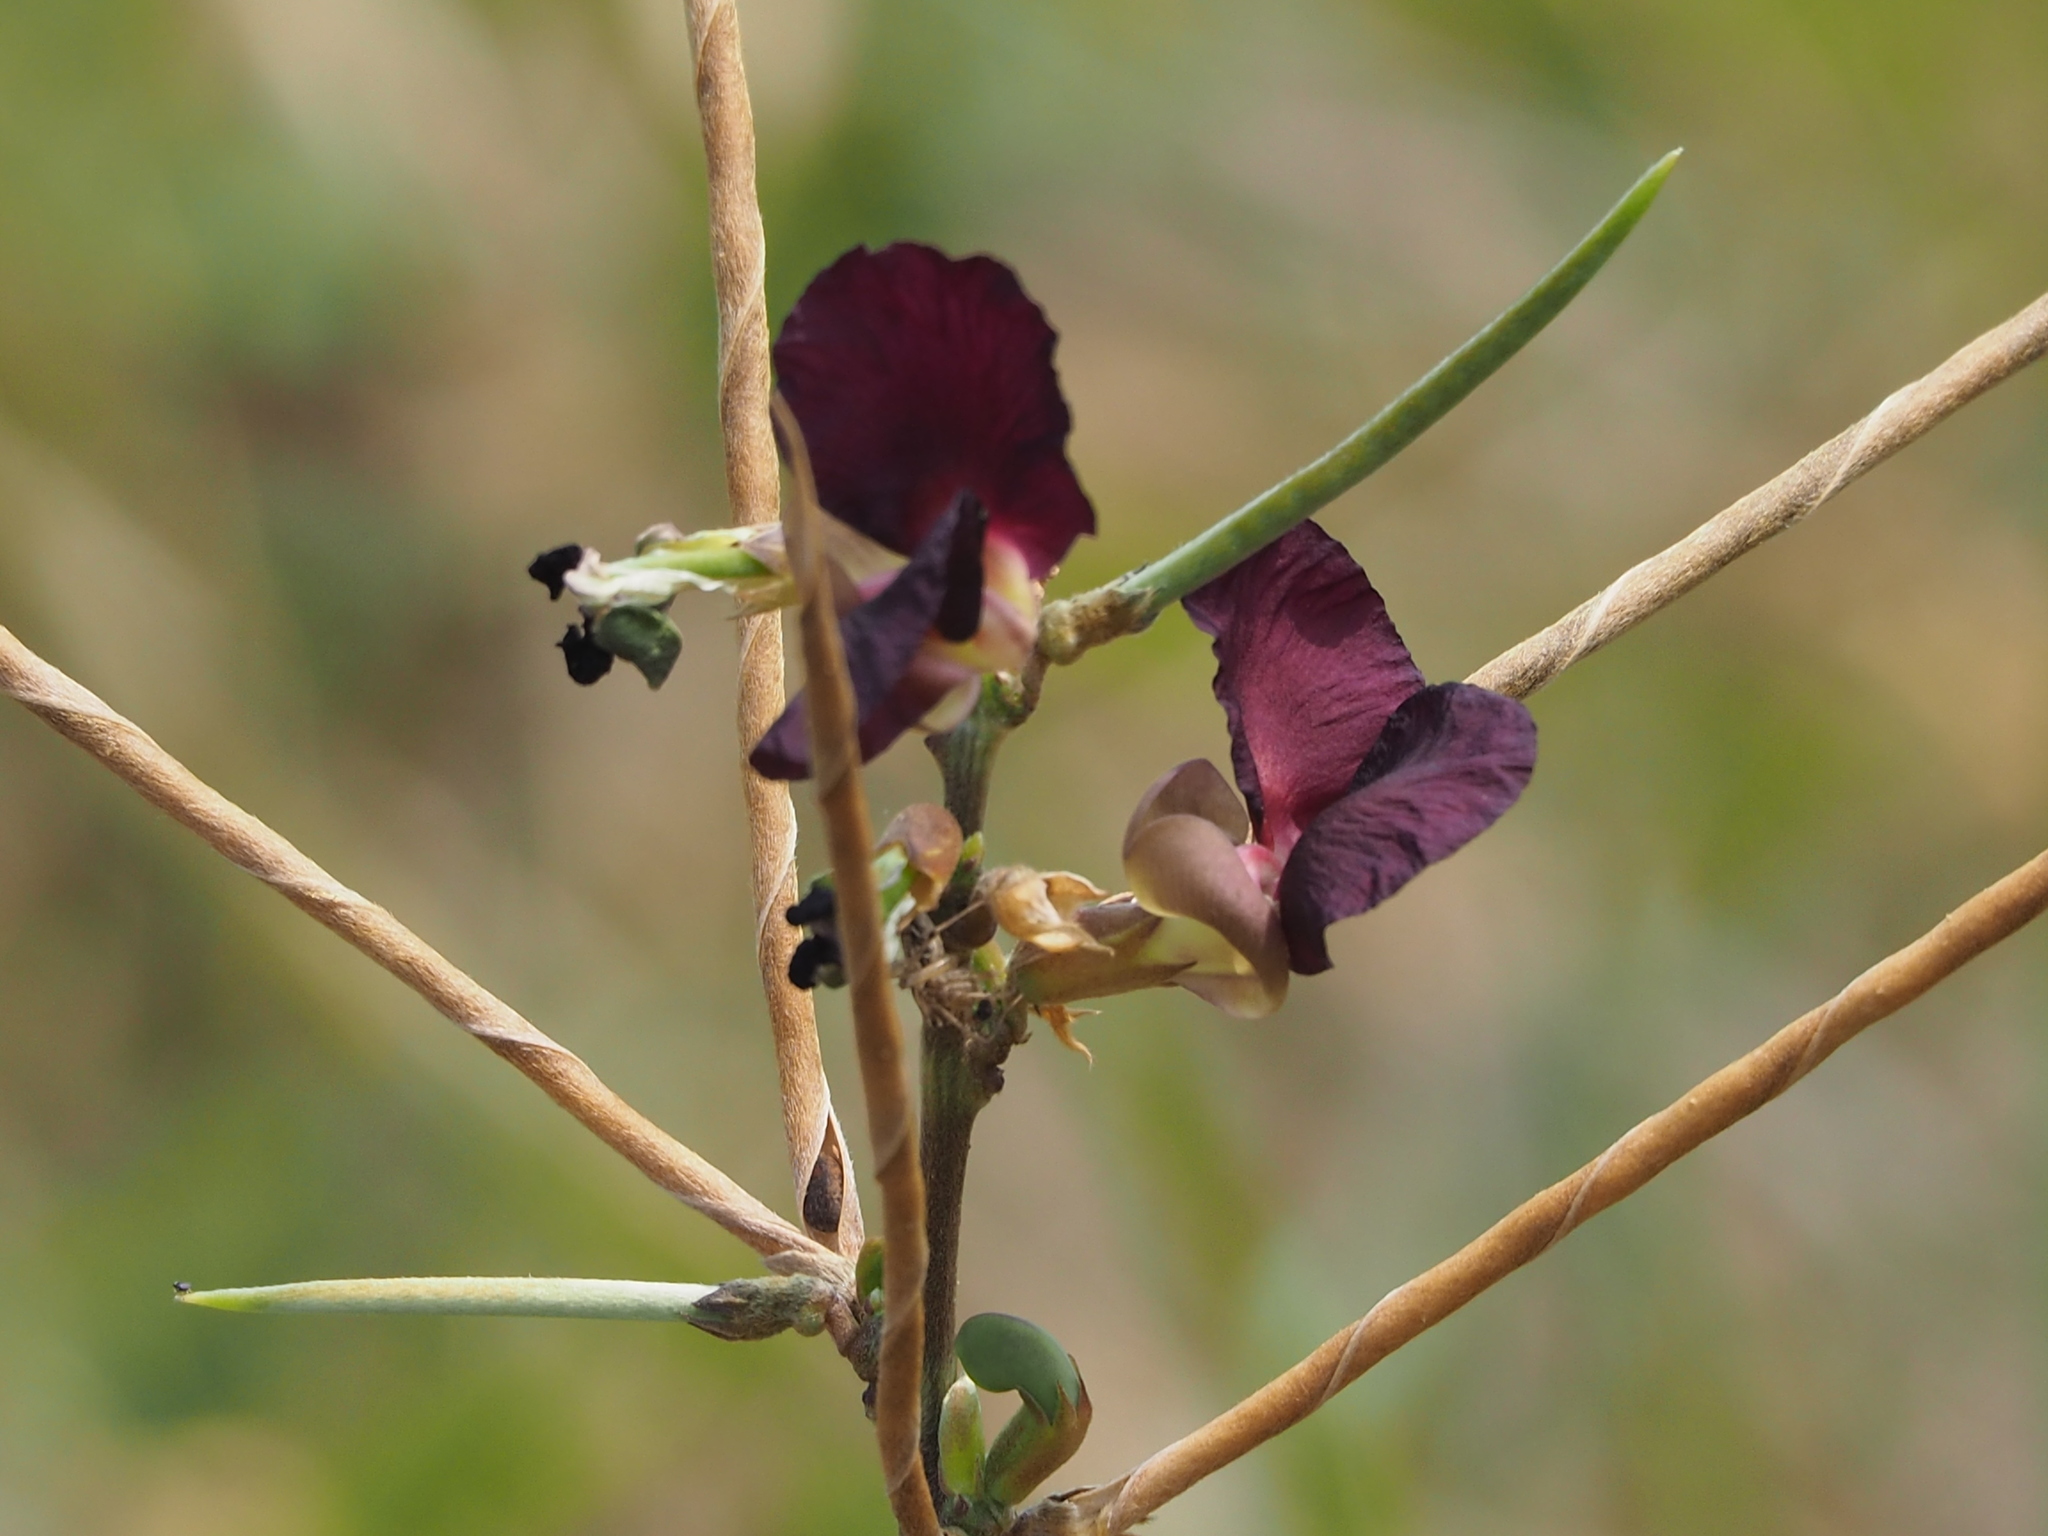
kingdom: Plantae
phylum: Tracheophyta
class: Magnoliopsida
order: Fabales
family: Fabaceae
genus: Macroptilium
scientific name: Macroptilium atropurpureum
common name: Purple bushbean
